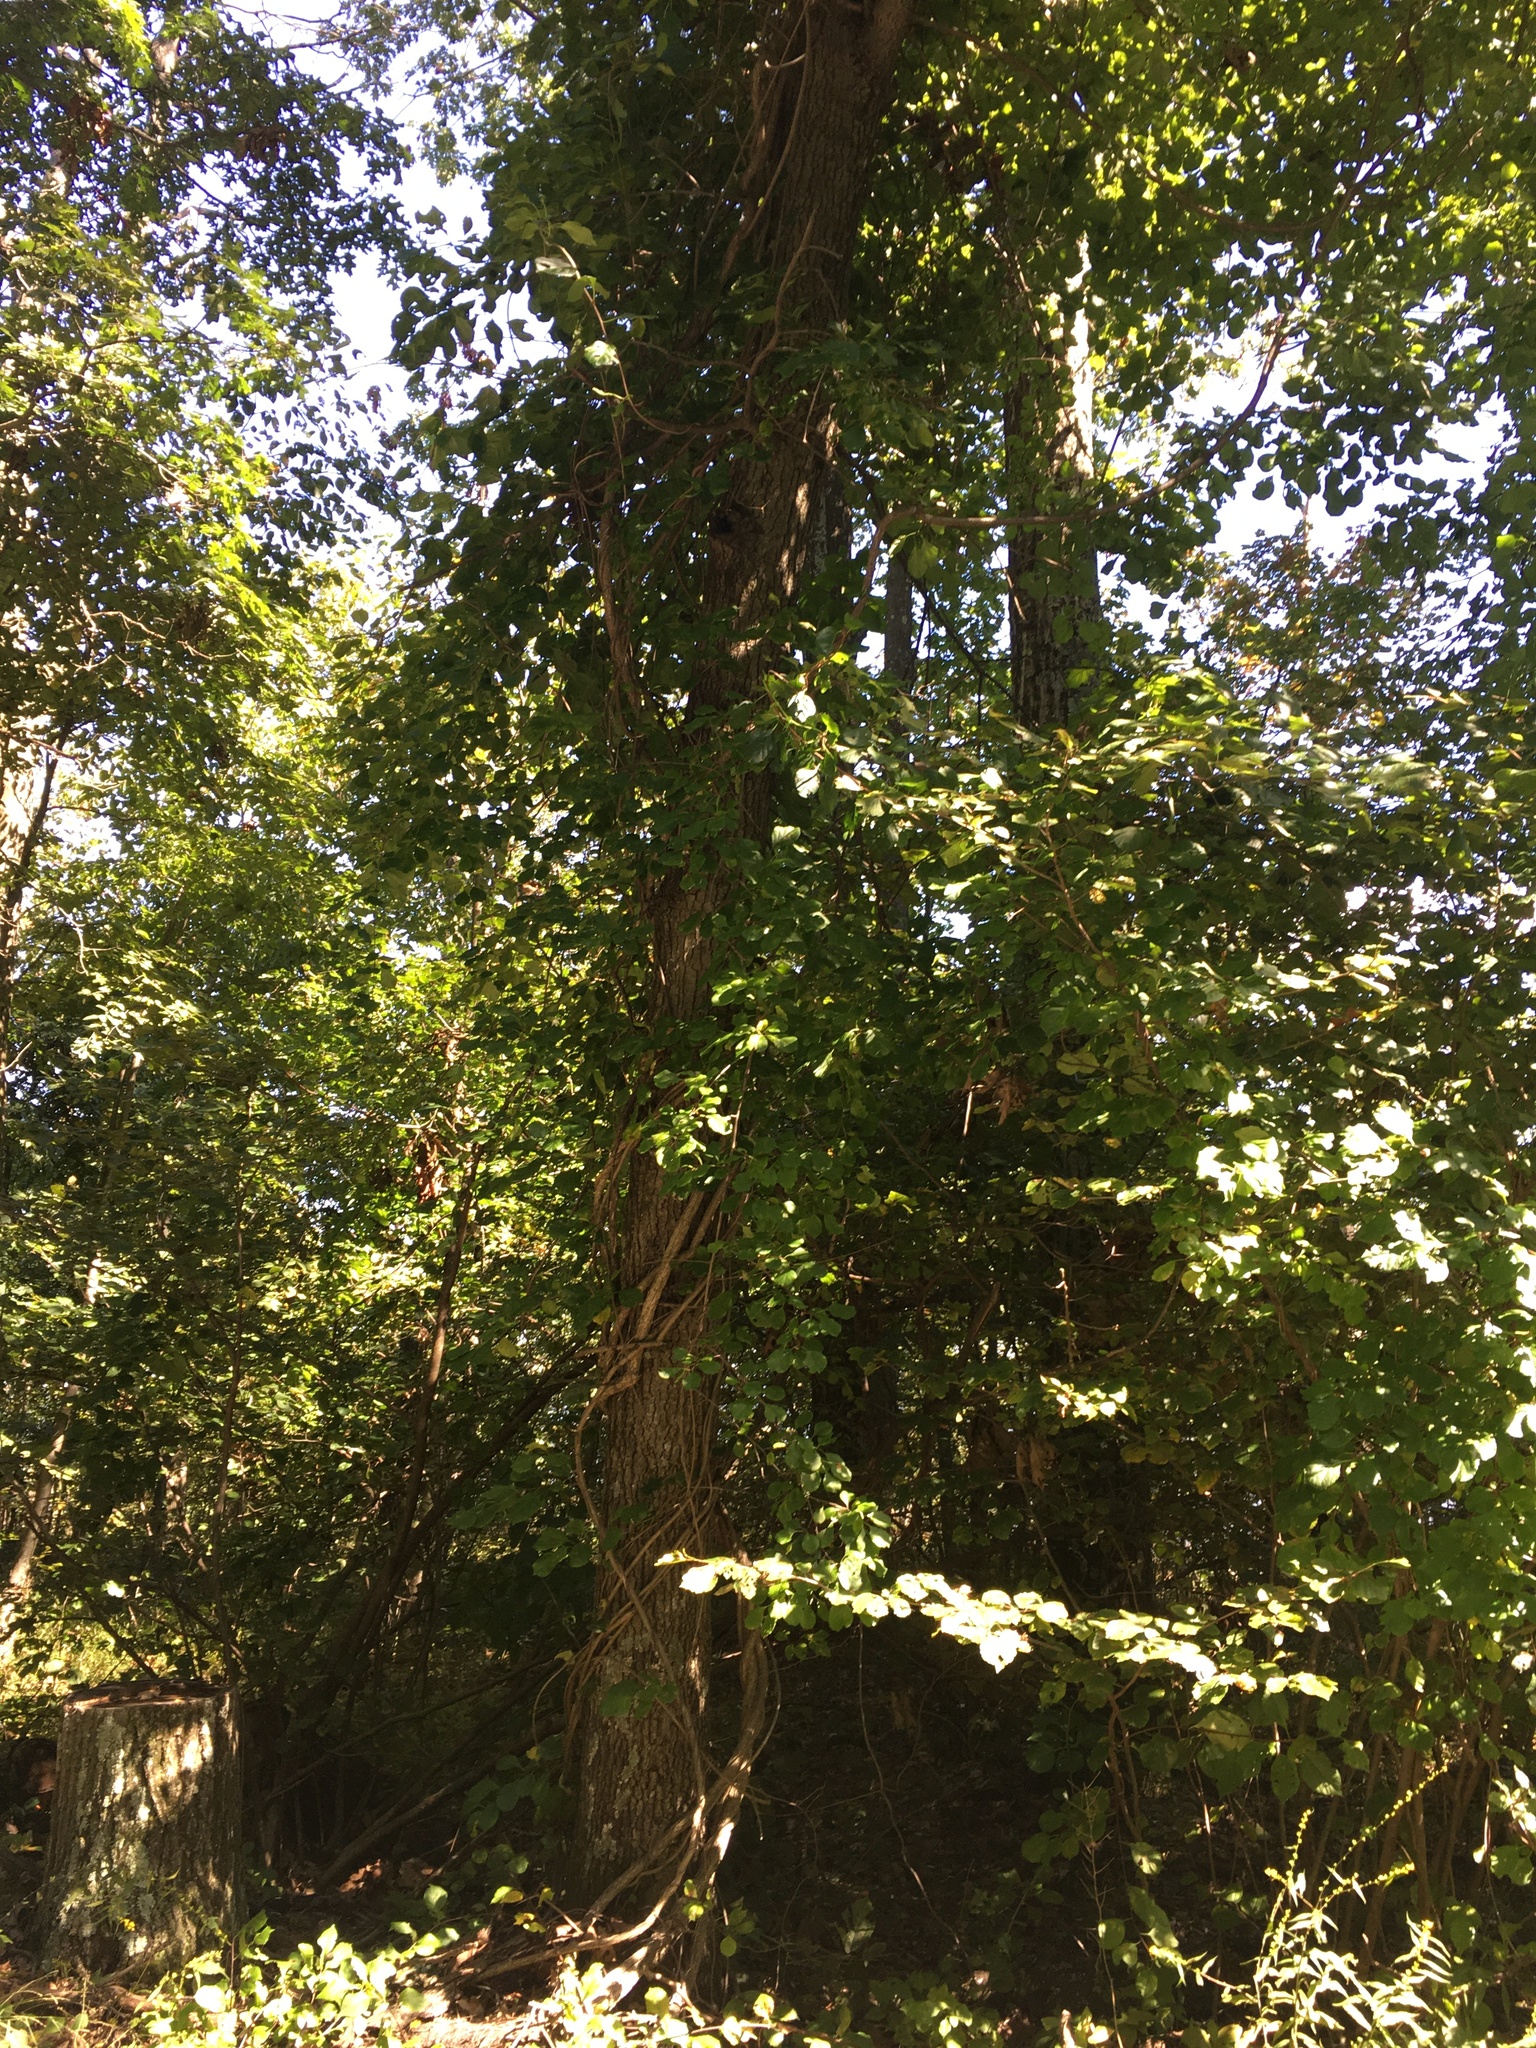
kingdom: Plantae
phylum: Tracheophyta
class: Magnoliopsida
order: Celastrales
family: Celastraceae
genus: Celastrus
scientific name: Celastrus orbiculatus
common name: Oriental bittersweet
